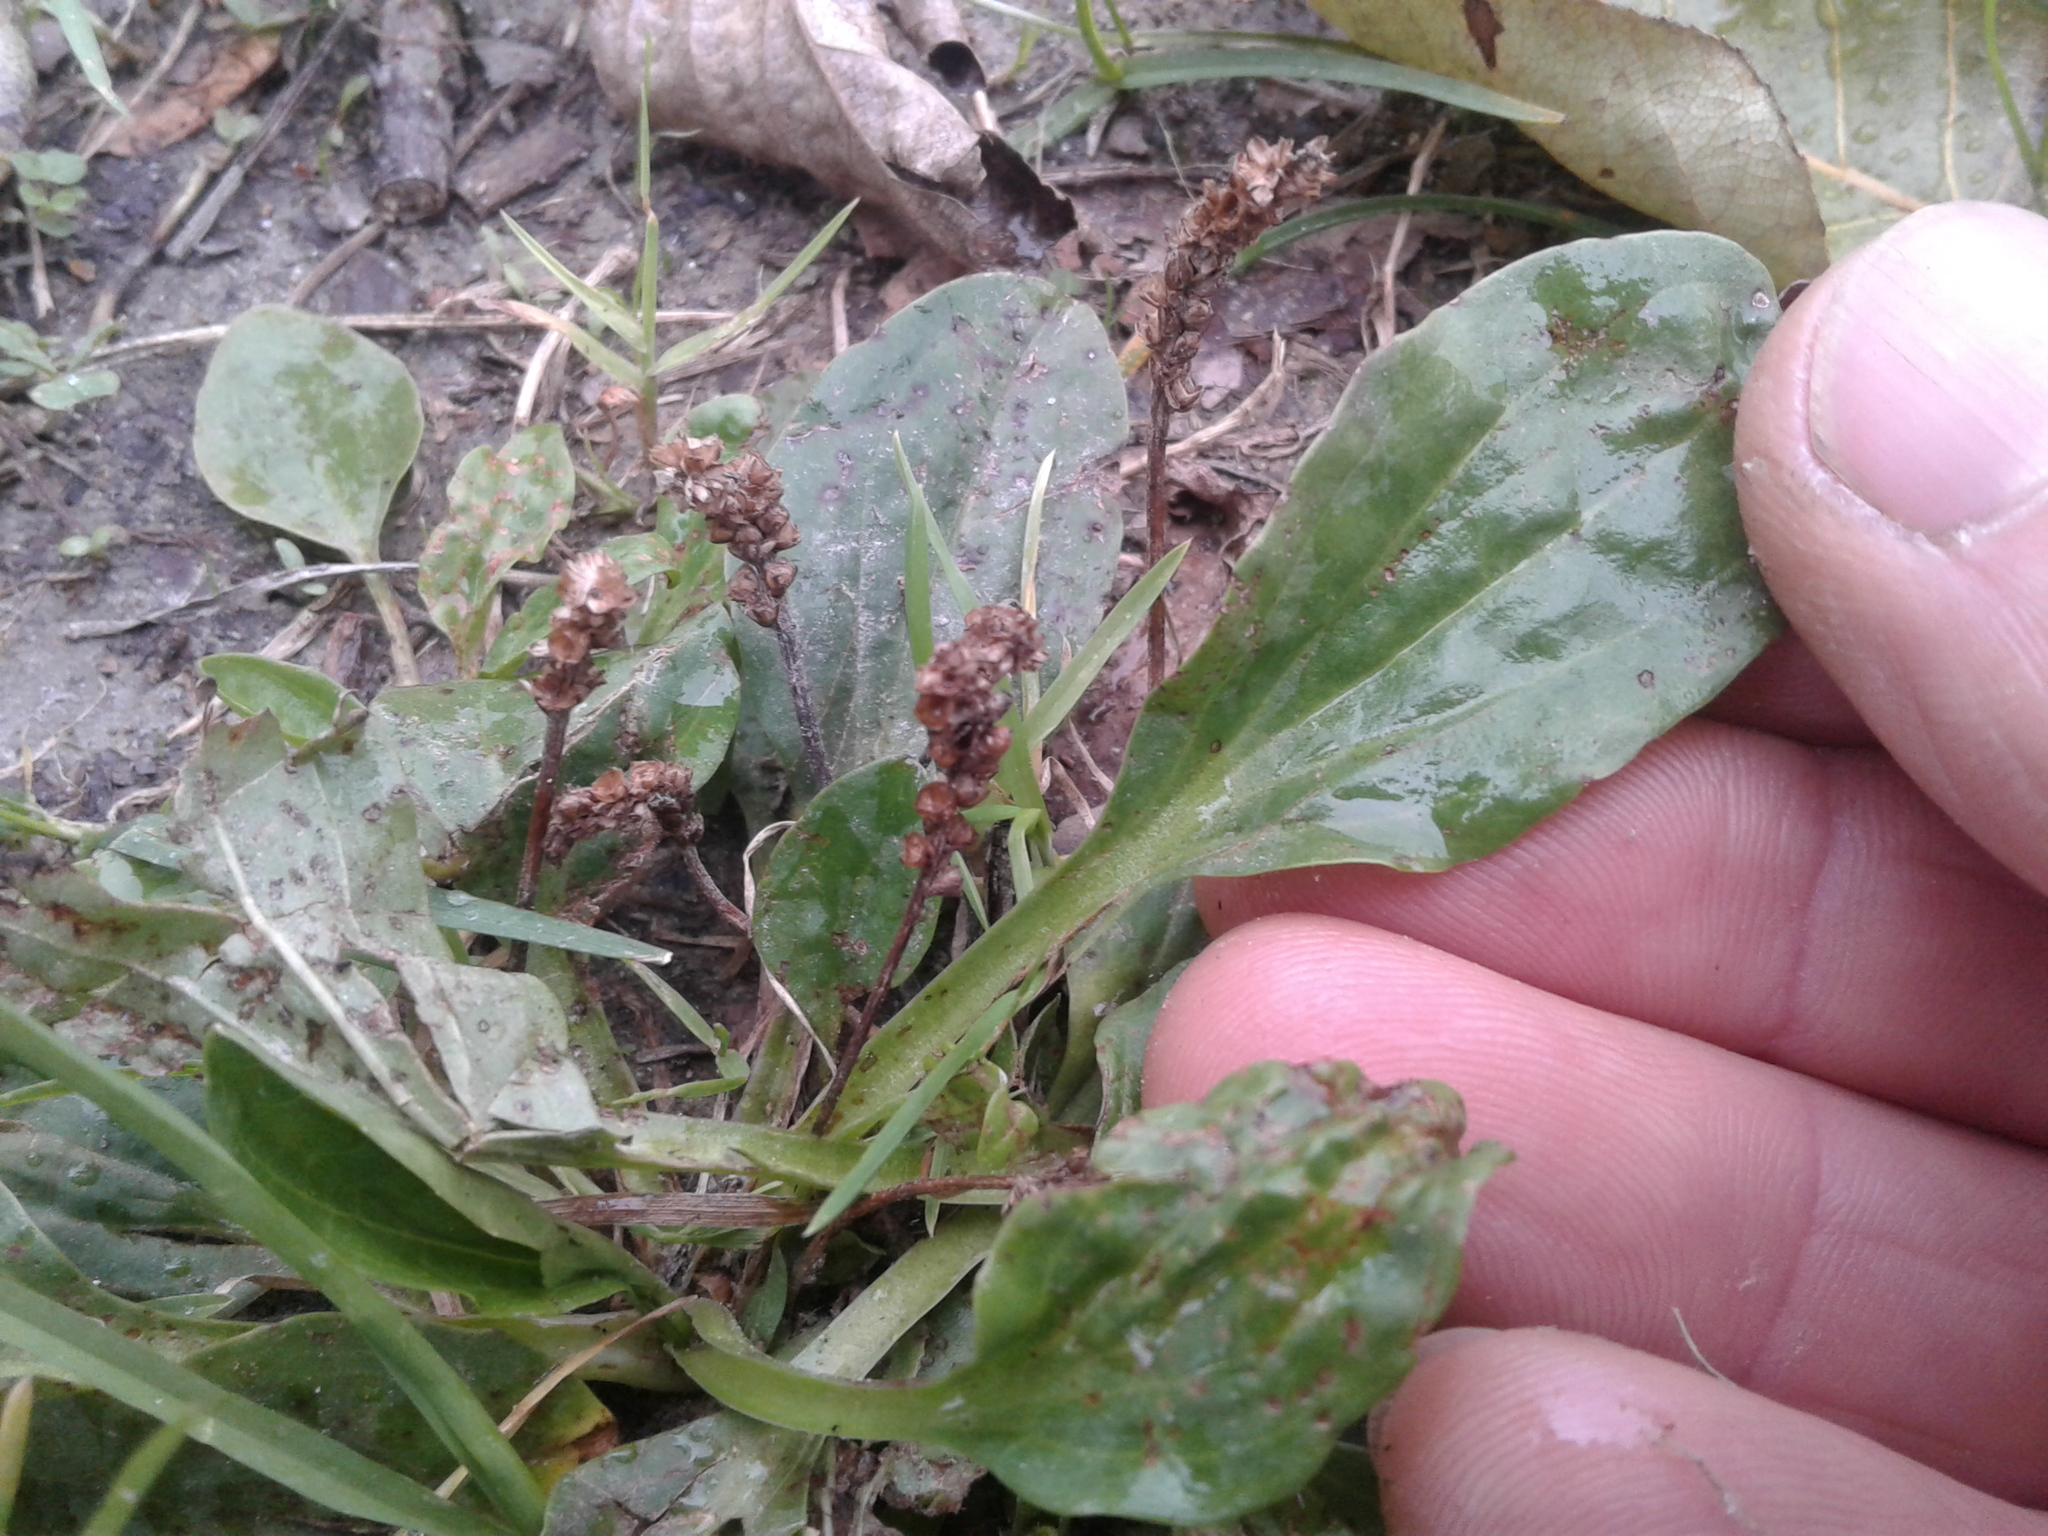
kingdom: Plantae
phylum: Tracheophyta
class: Magnoliopsida
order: Lamiales
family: Plantaginaceae
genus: Plantago
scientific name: Plantago major
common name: Common plantain
